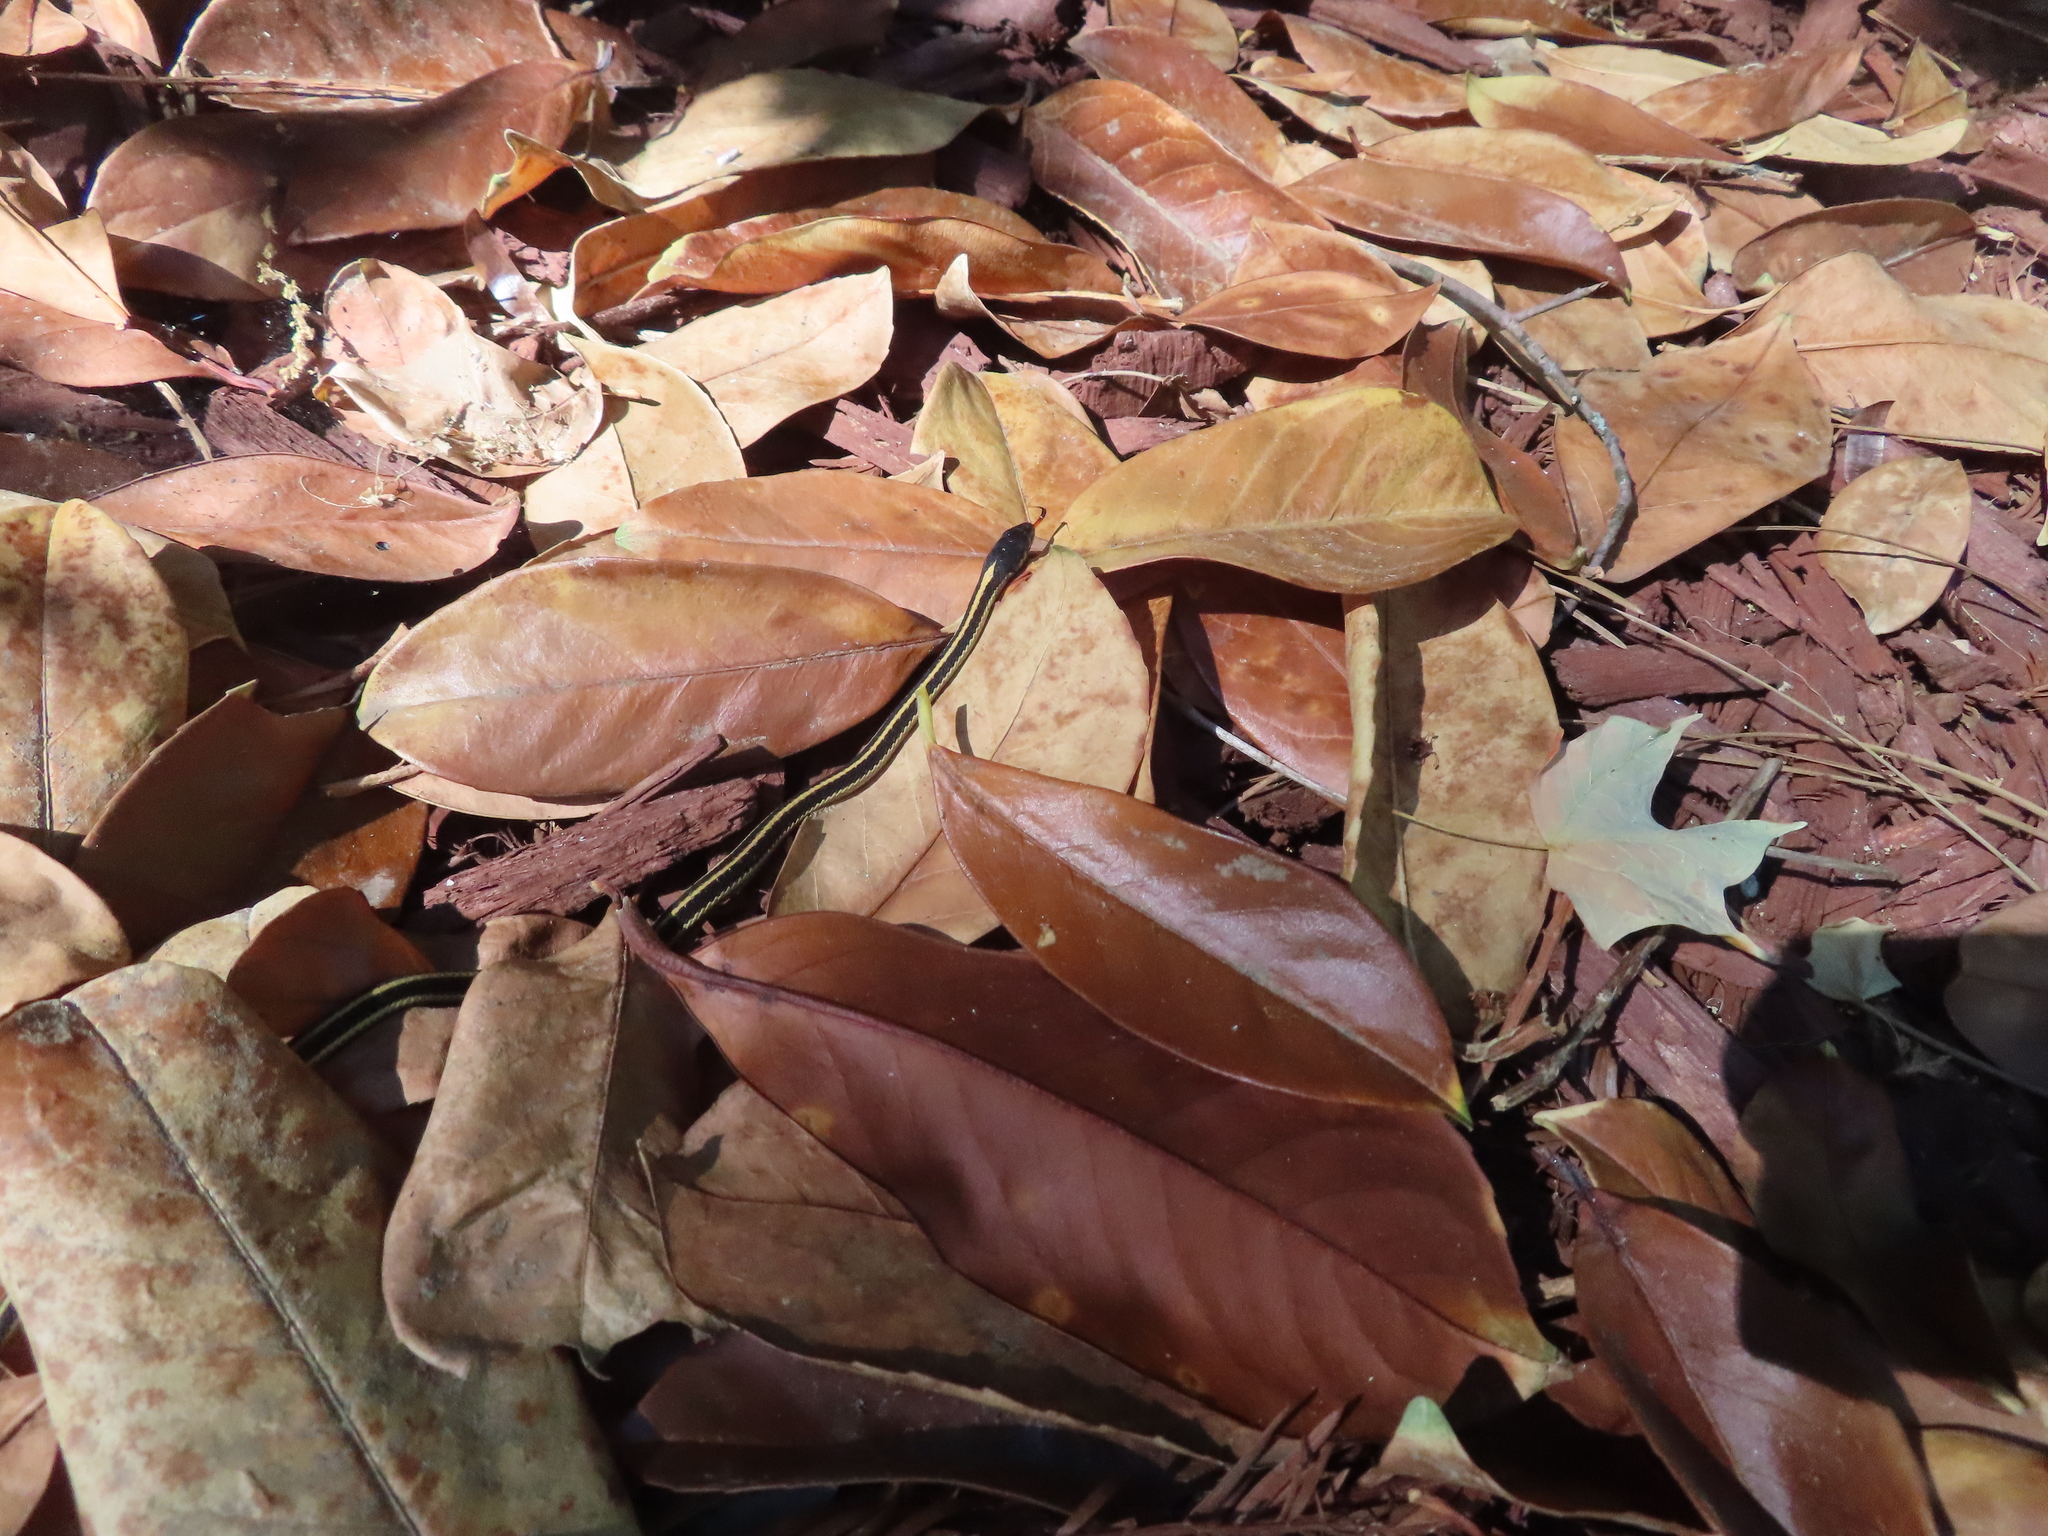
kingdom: Animalia
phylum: Chordata
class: Squamata
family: Colubridae
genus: Thamnophis
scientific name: Thamnophis elegans
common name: Western terrestrial garter snake
